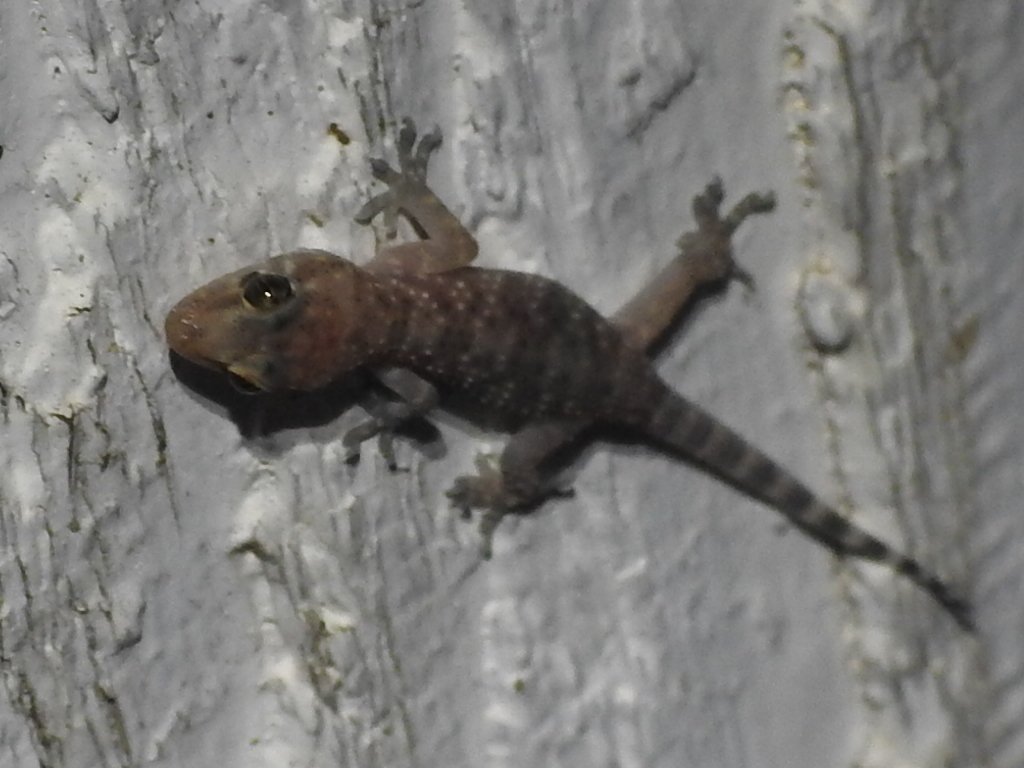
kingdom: Animalia
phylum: Chordata
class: Squamata
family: Gekkonidae
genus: Hemidactylus
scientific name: Hemidactylus turcicus
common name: Turkish gecko
